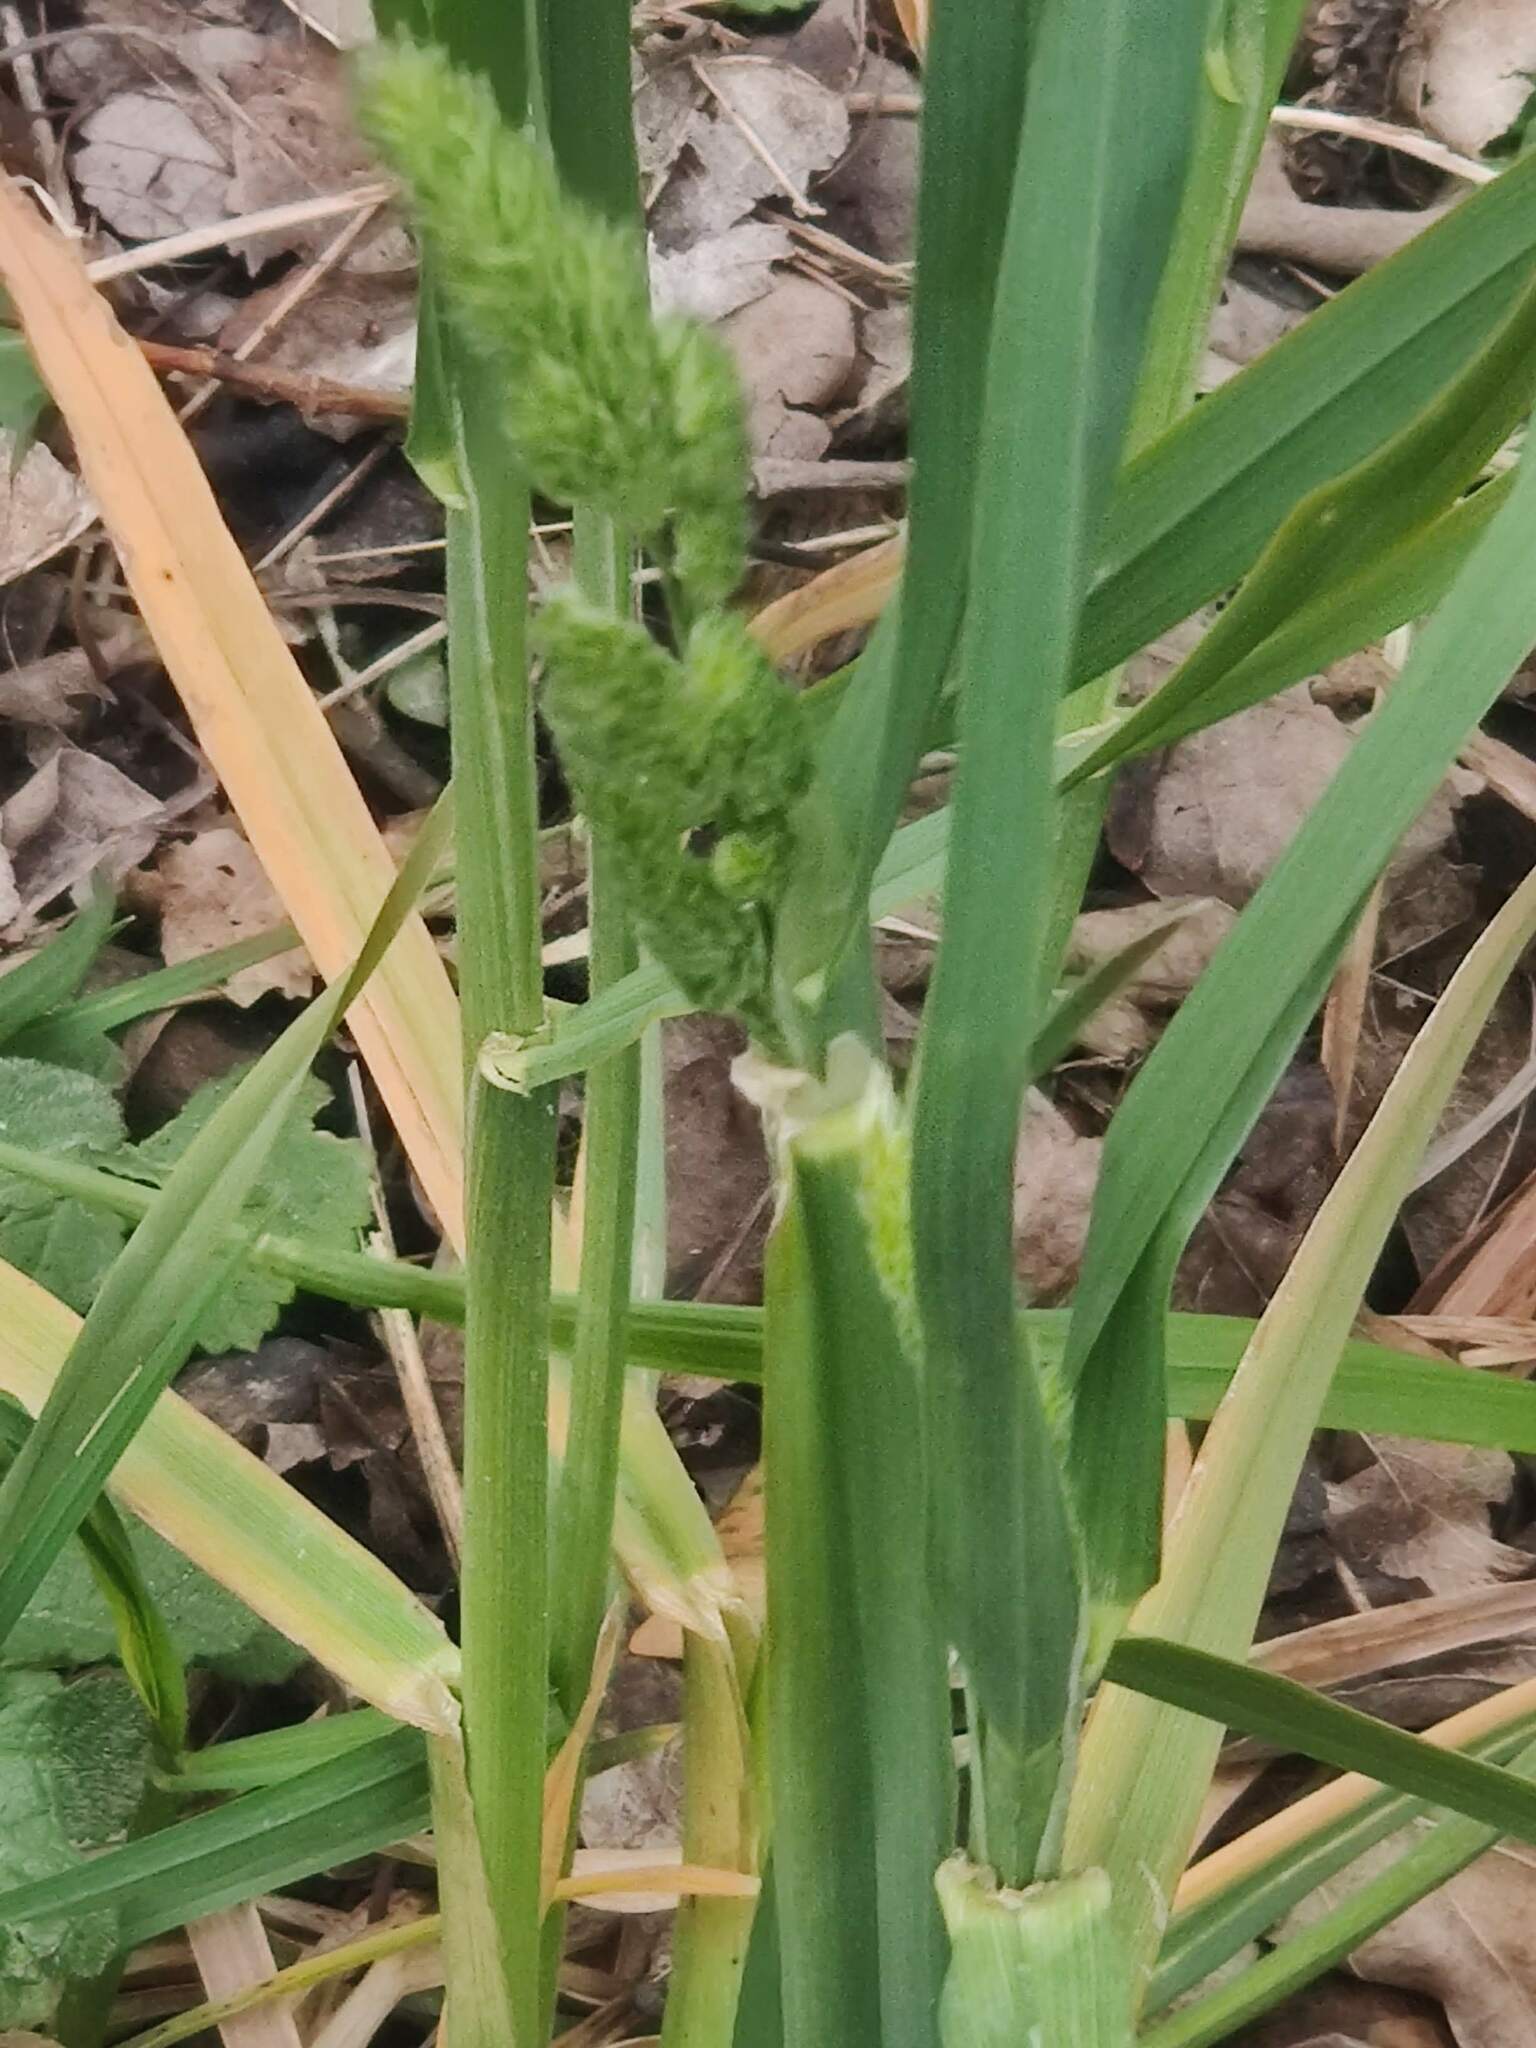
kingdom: Plantae
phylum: Tracheophyta
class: Liliopsida
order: Poales
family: Poaceae
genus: Dactylis
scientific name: Dactylis glomerata
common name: Orchardgrass
